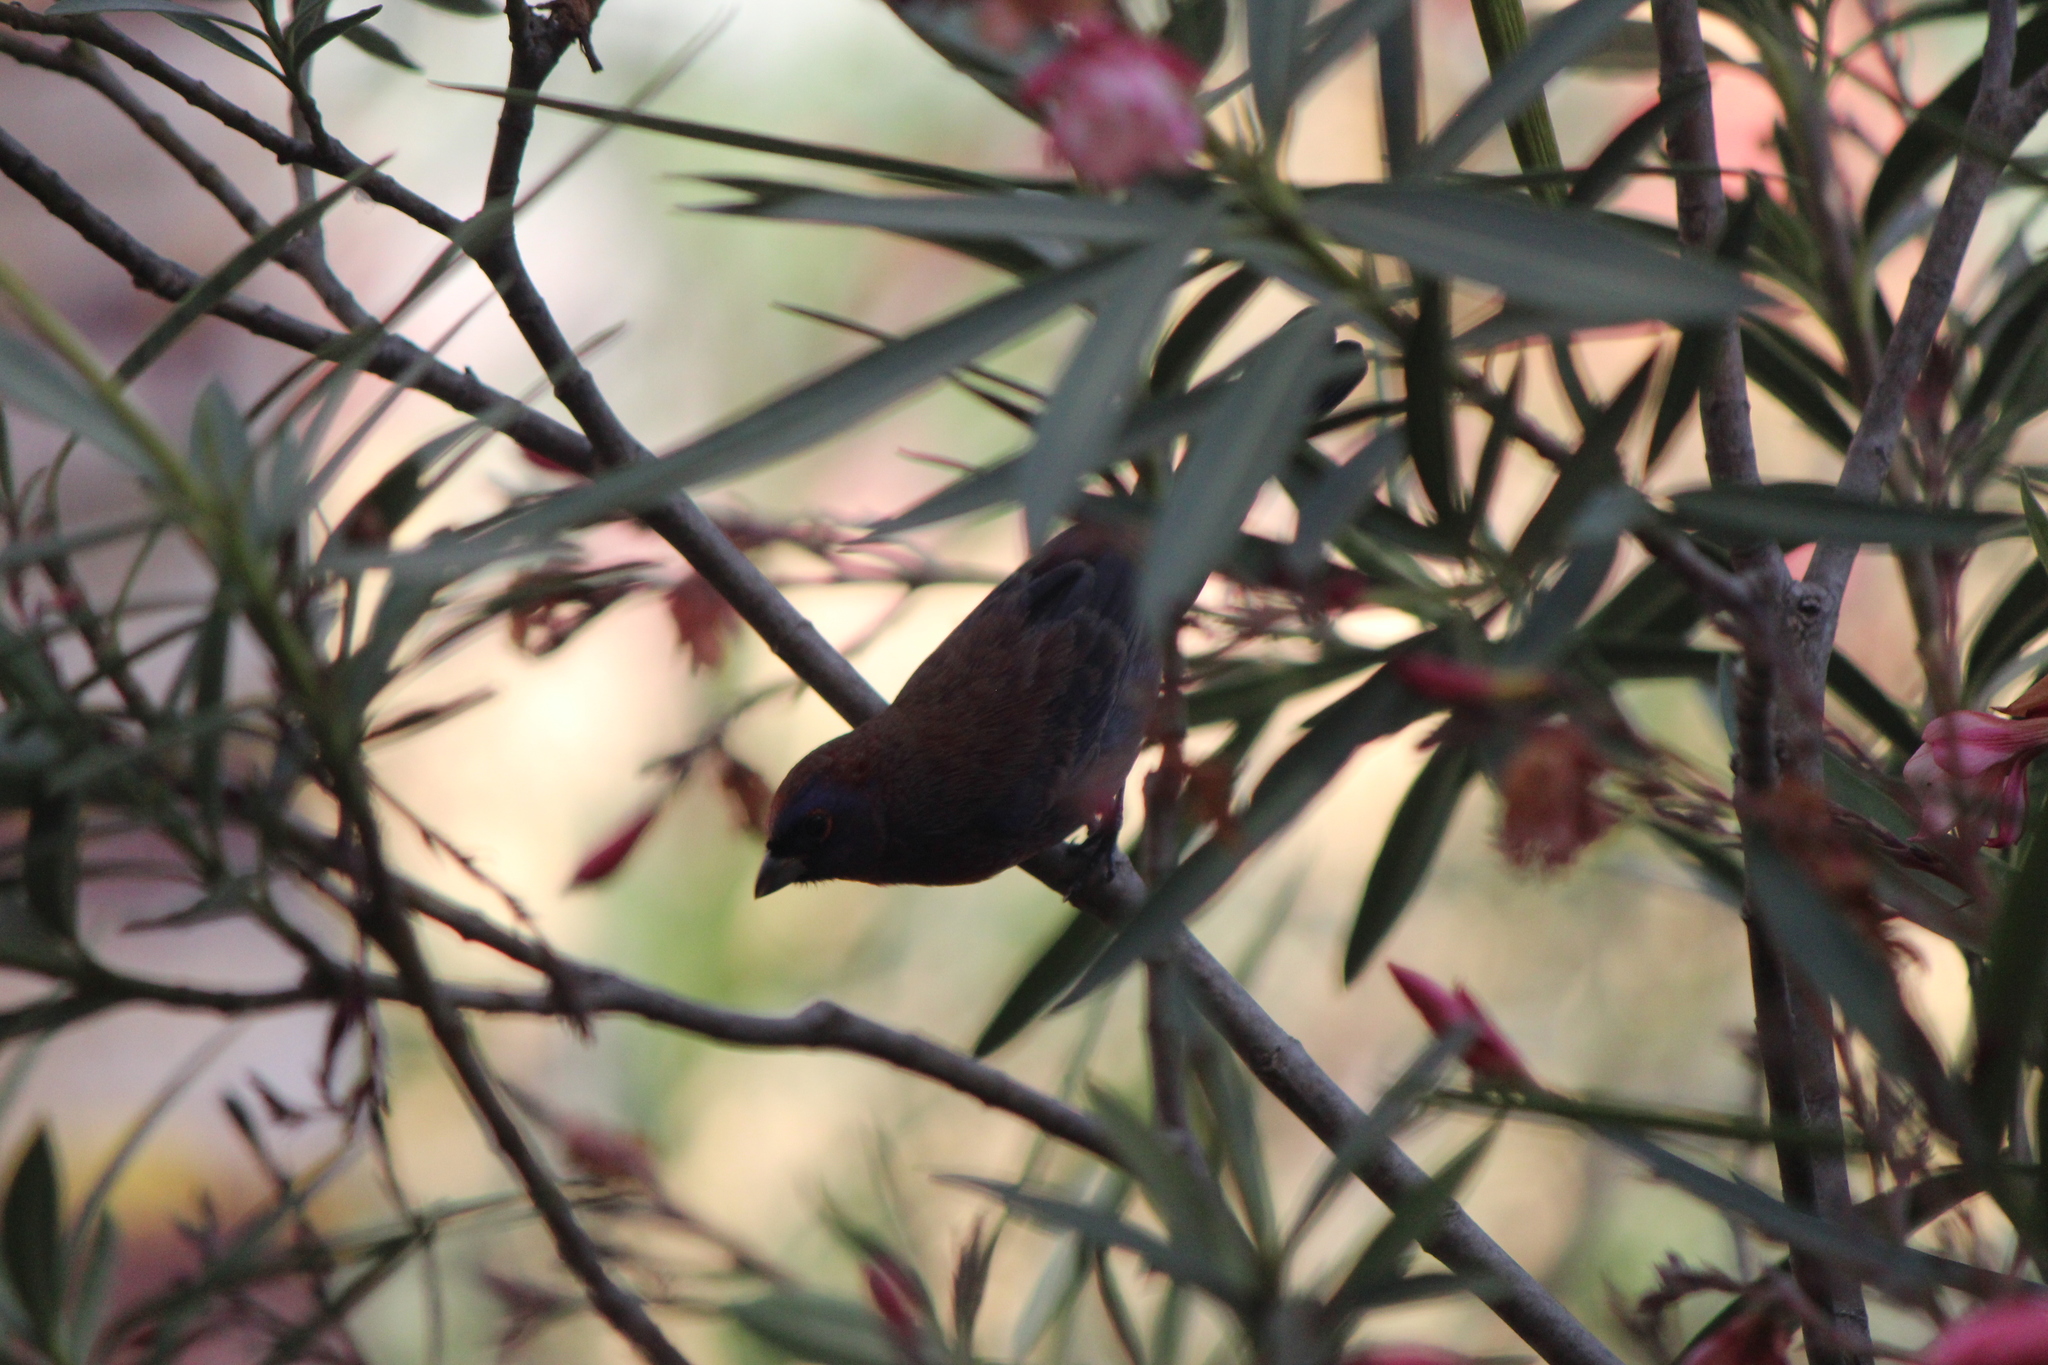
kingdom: Animalia
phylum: Chordata
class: Aves
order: Passeriformes
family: Cardinalidae
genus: Passerina
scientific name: Passerina versicolor
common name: Varied bunting
